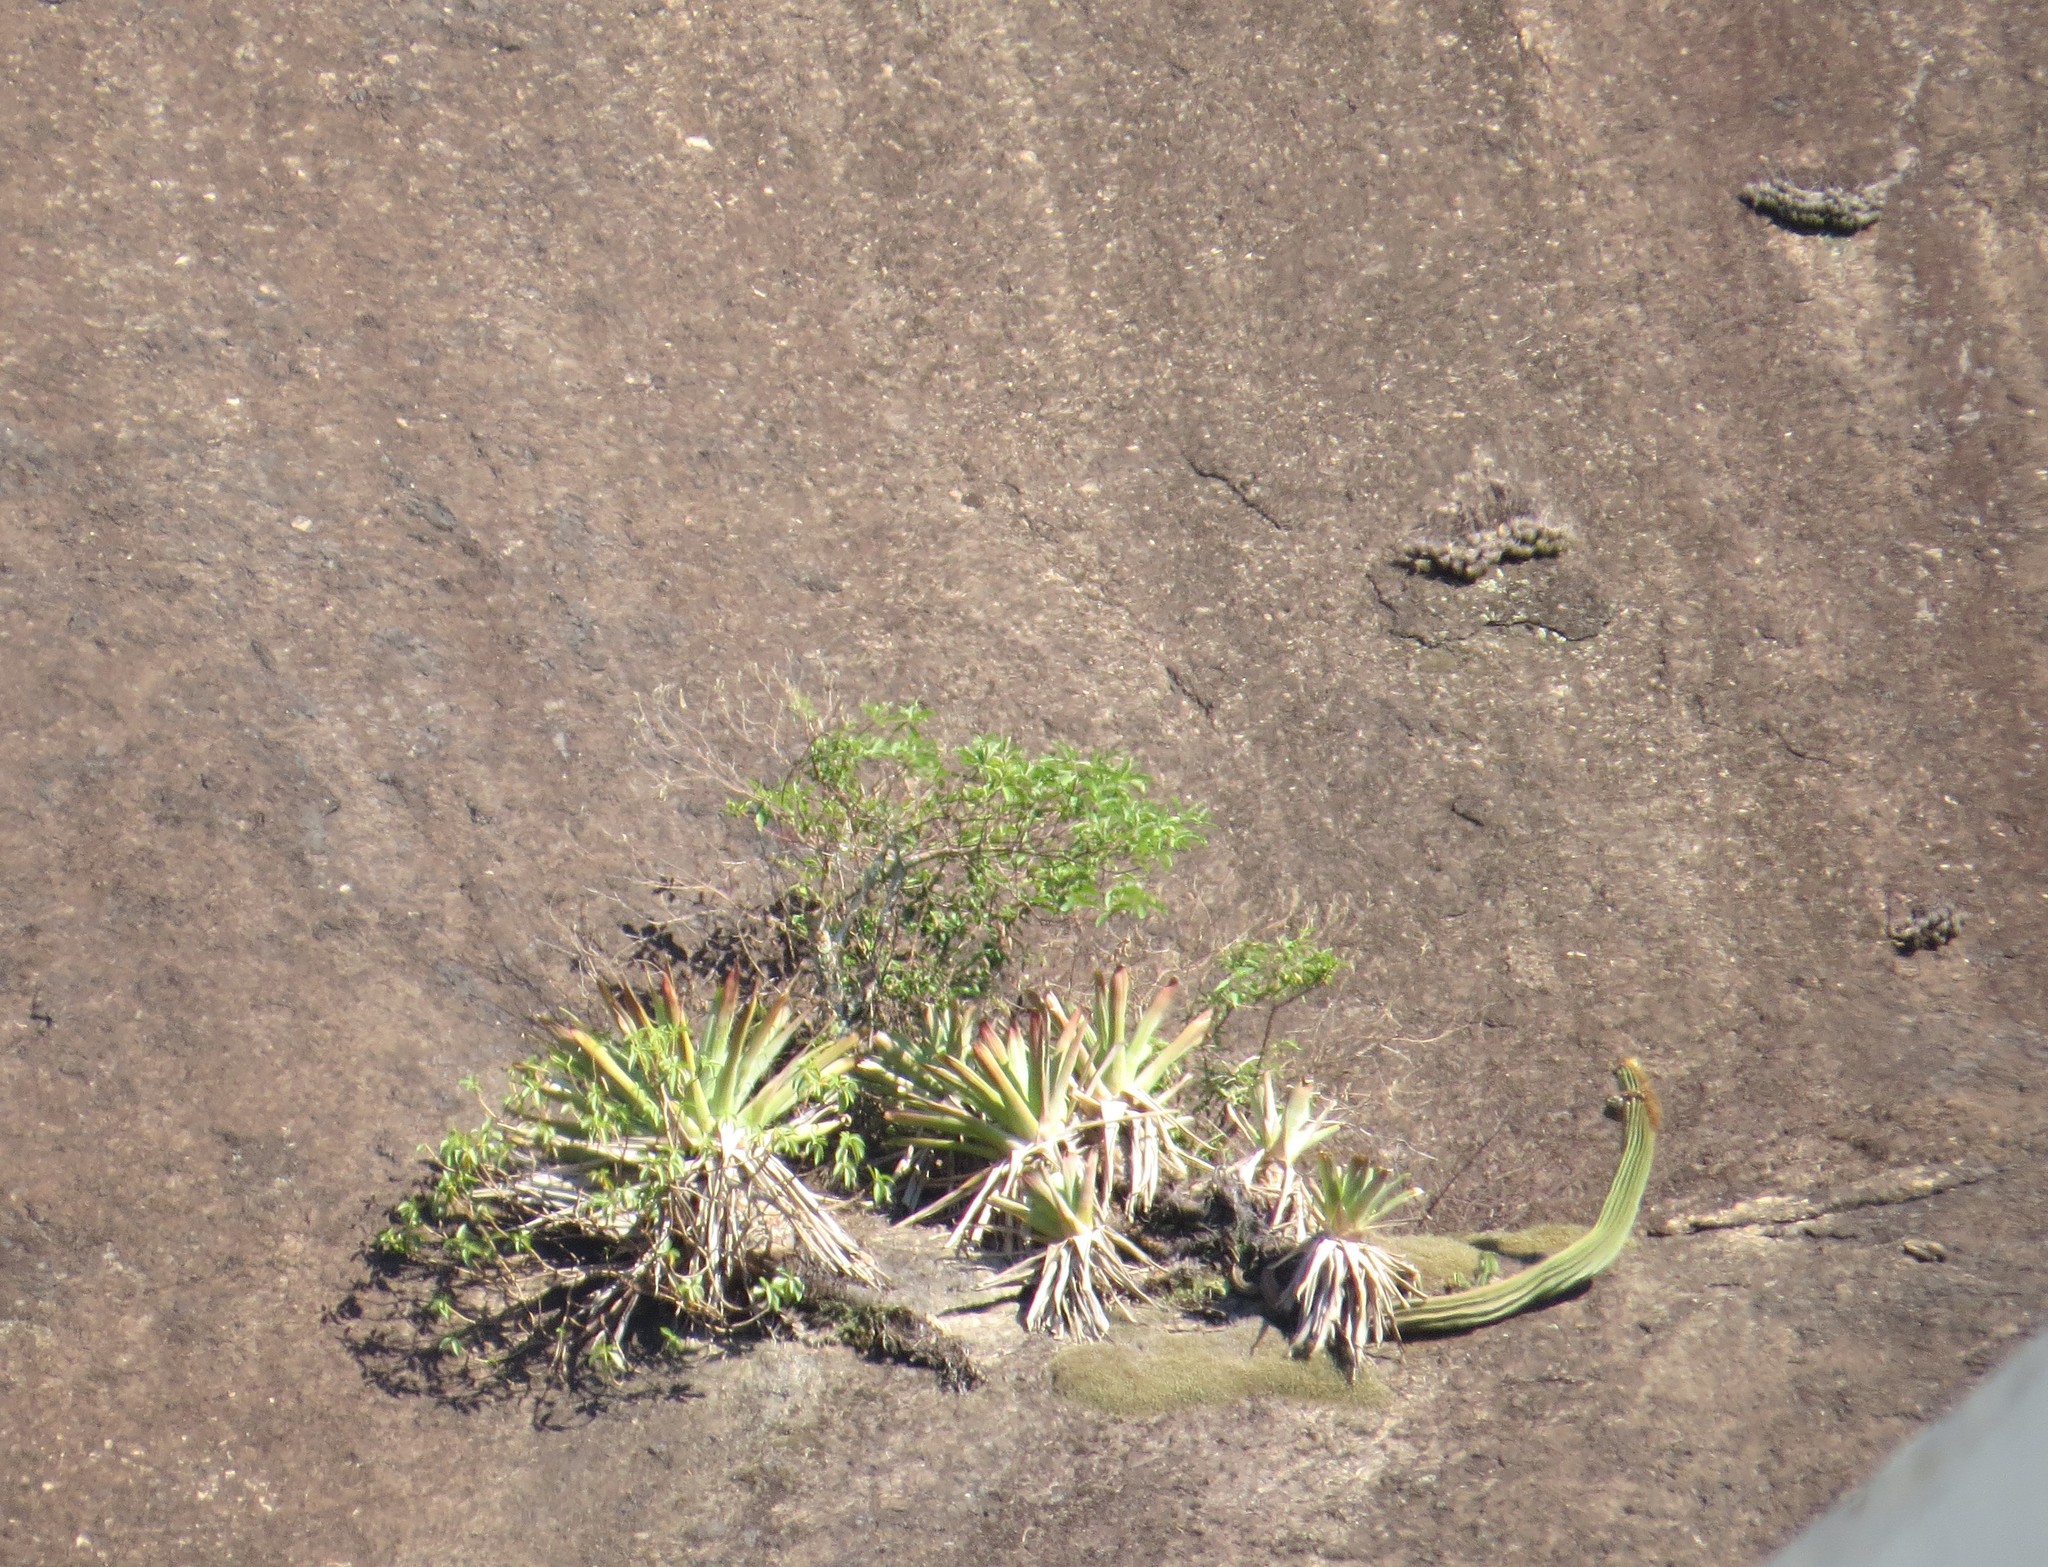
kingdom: Plantae
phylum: Tracheophyta
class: Magnoliopsida
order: Caryophyllales
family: Cactaceae
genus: Coleocephalocereus
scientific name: Coleocephalocereus fluminensis
